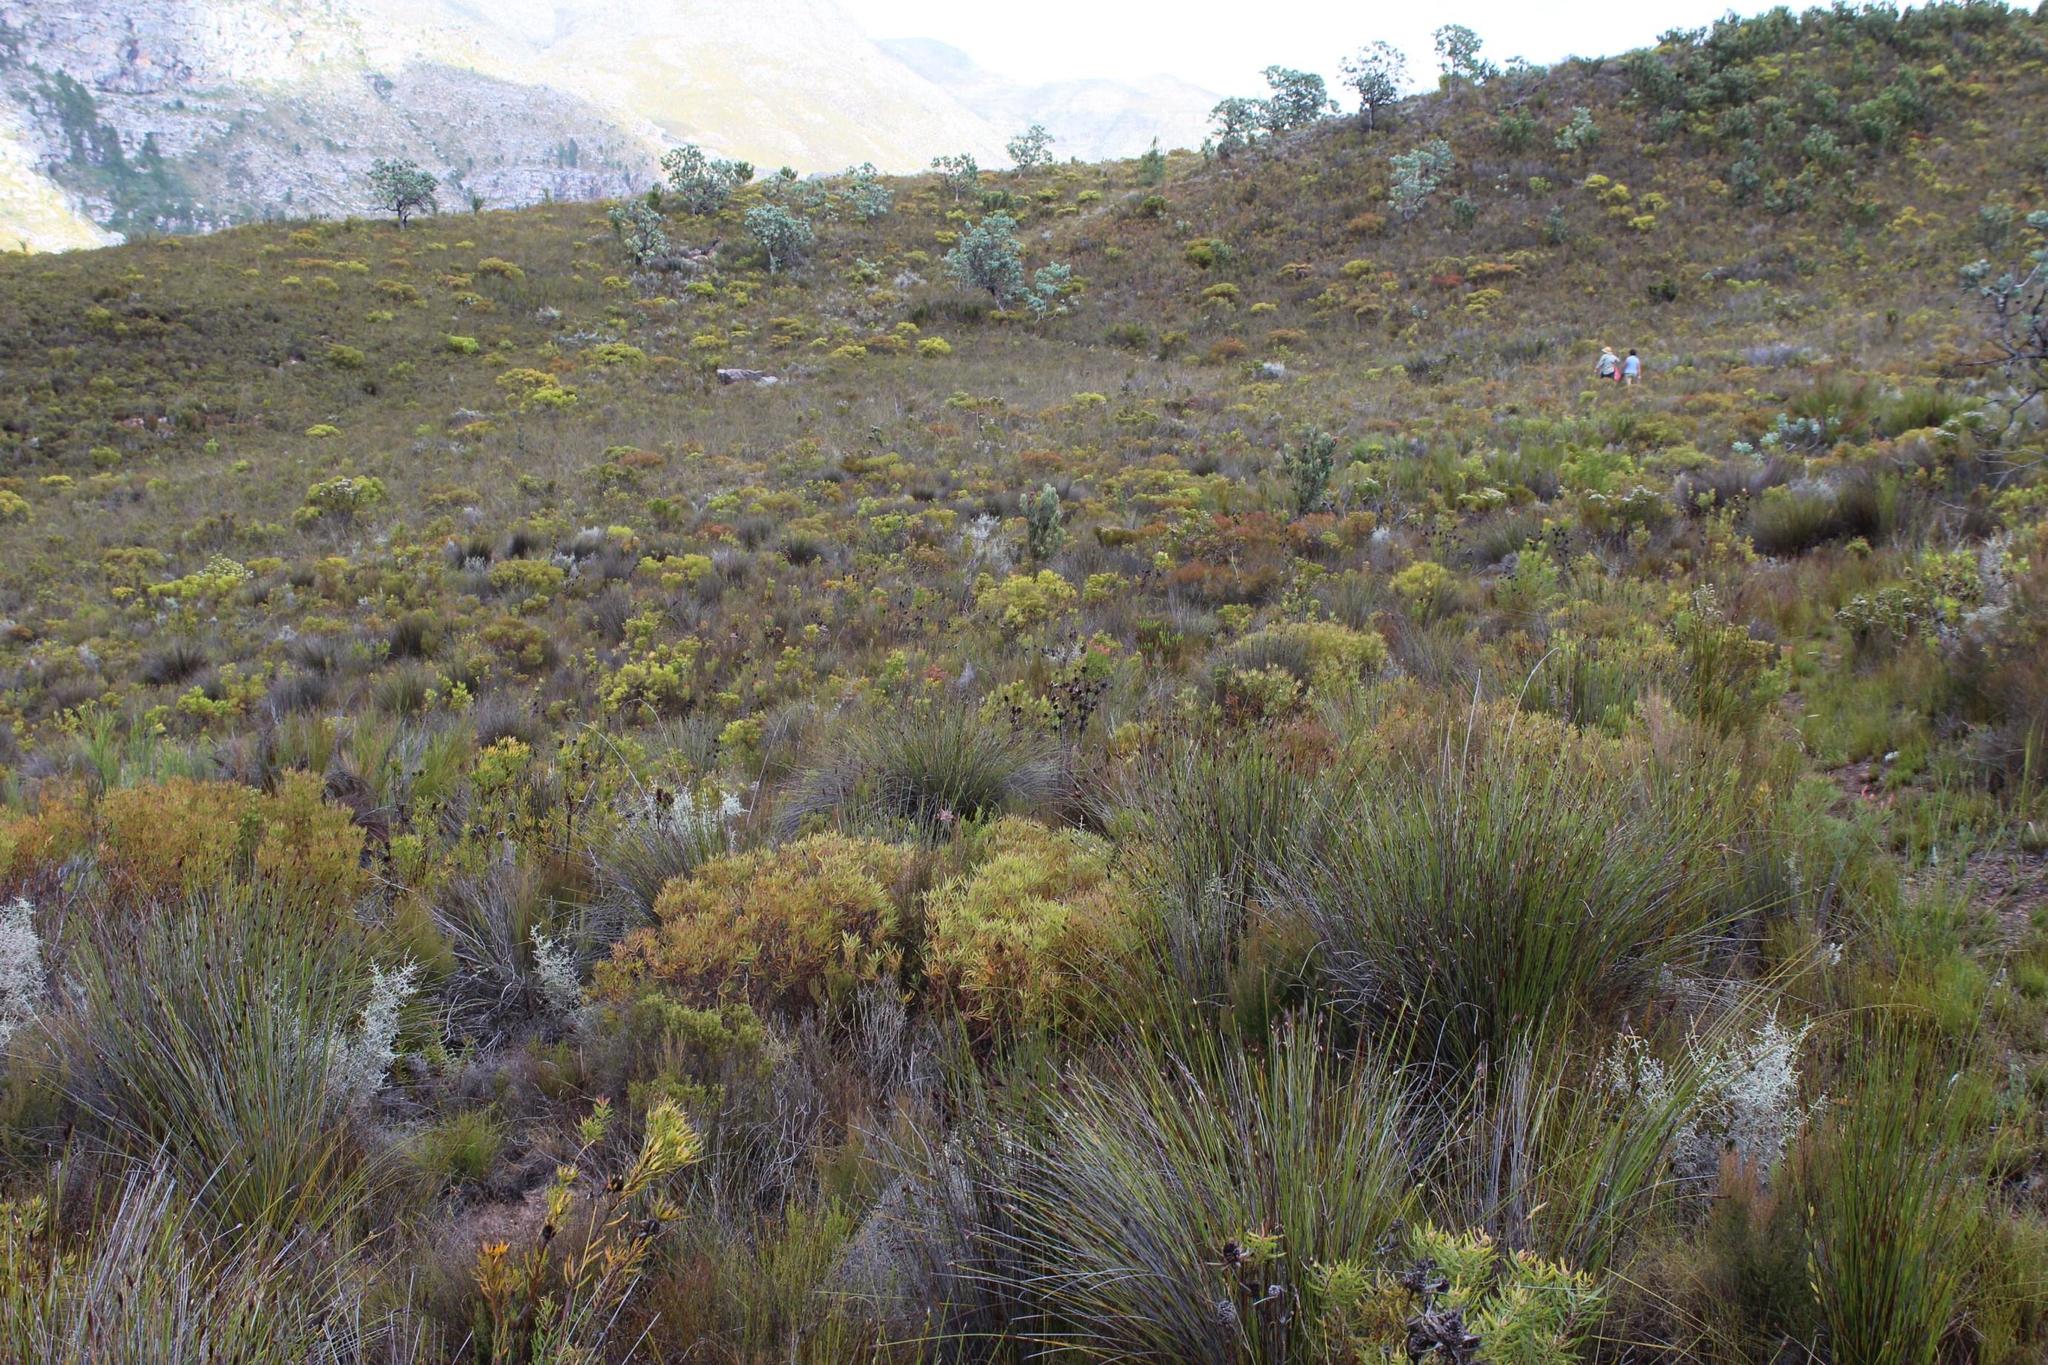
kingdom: Plantae
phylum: Tracheophyta
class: Magnoliopsida
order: Proteales
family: Proteaceae
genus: Leucadendron
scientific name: Leucadendron spissifolium
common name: Spear-leaf conebush
